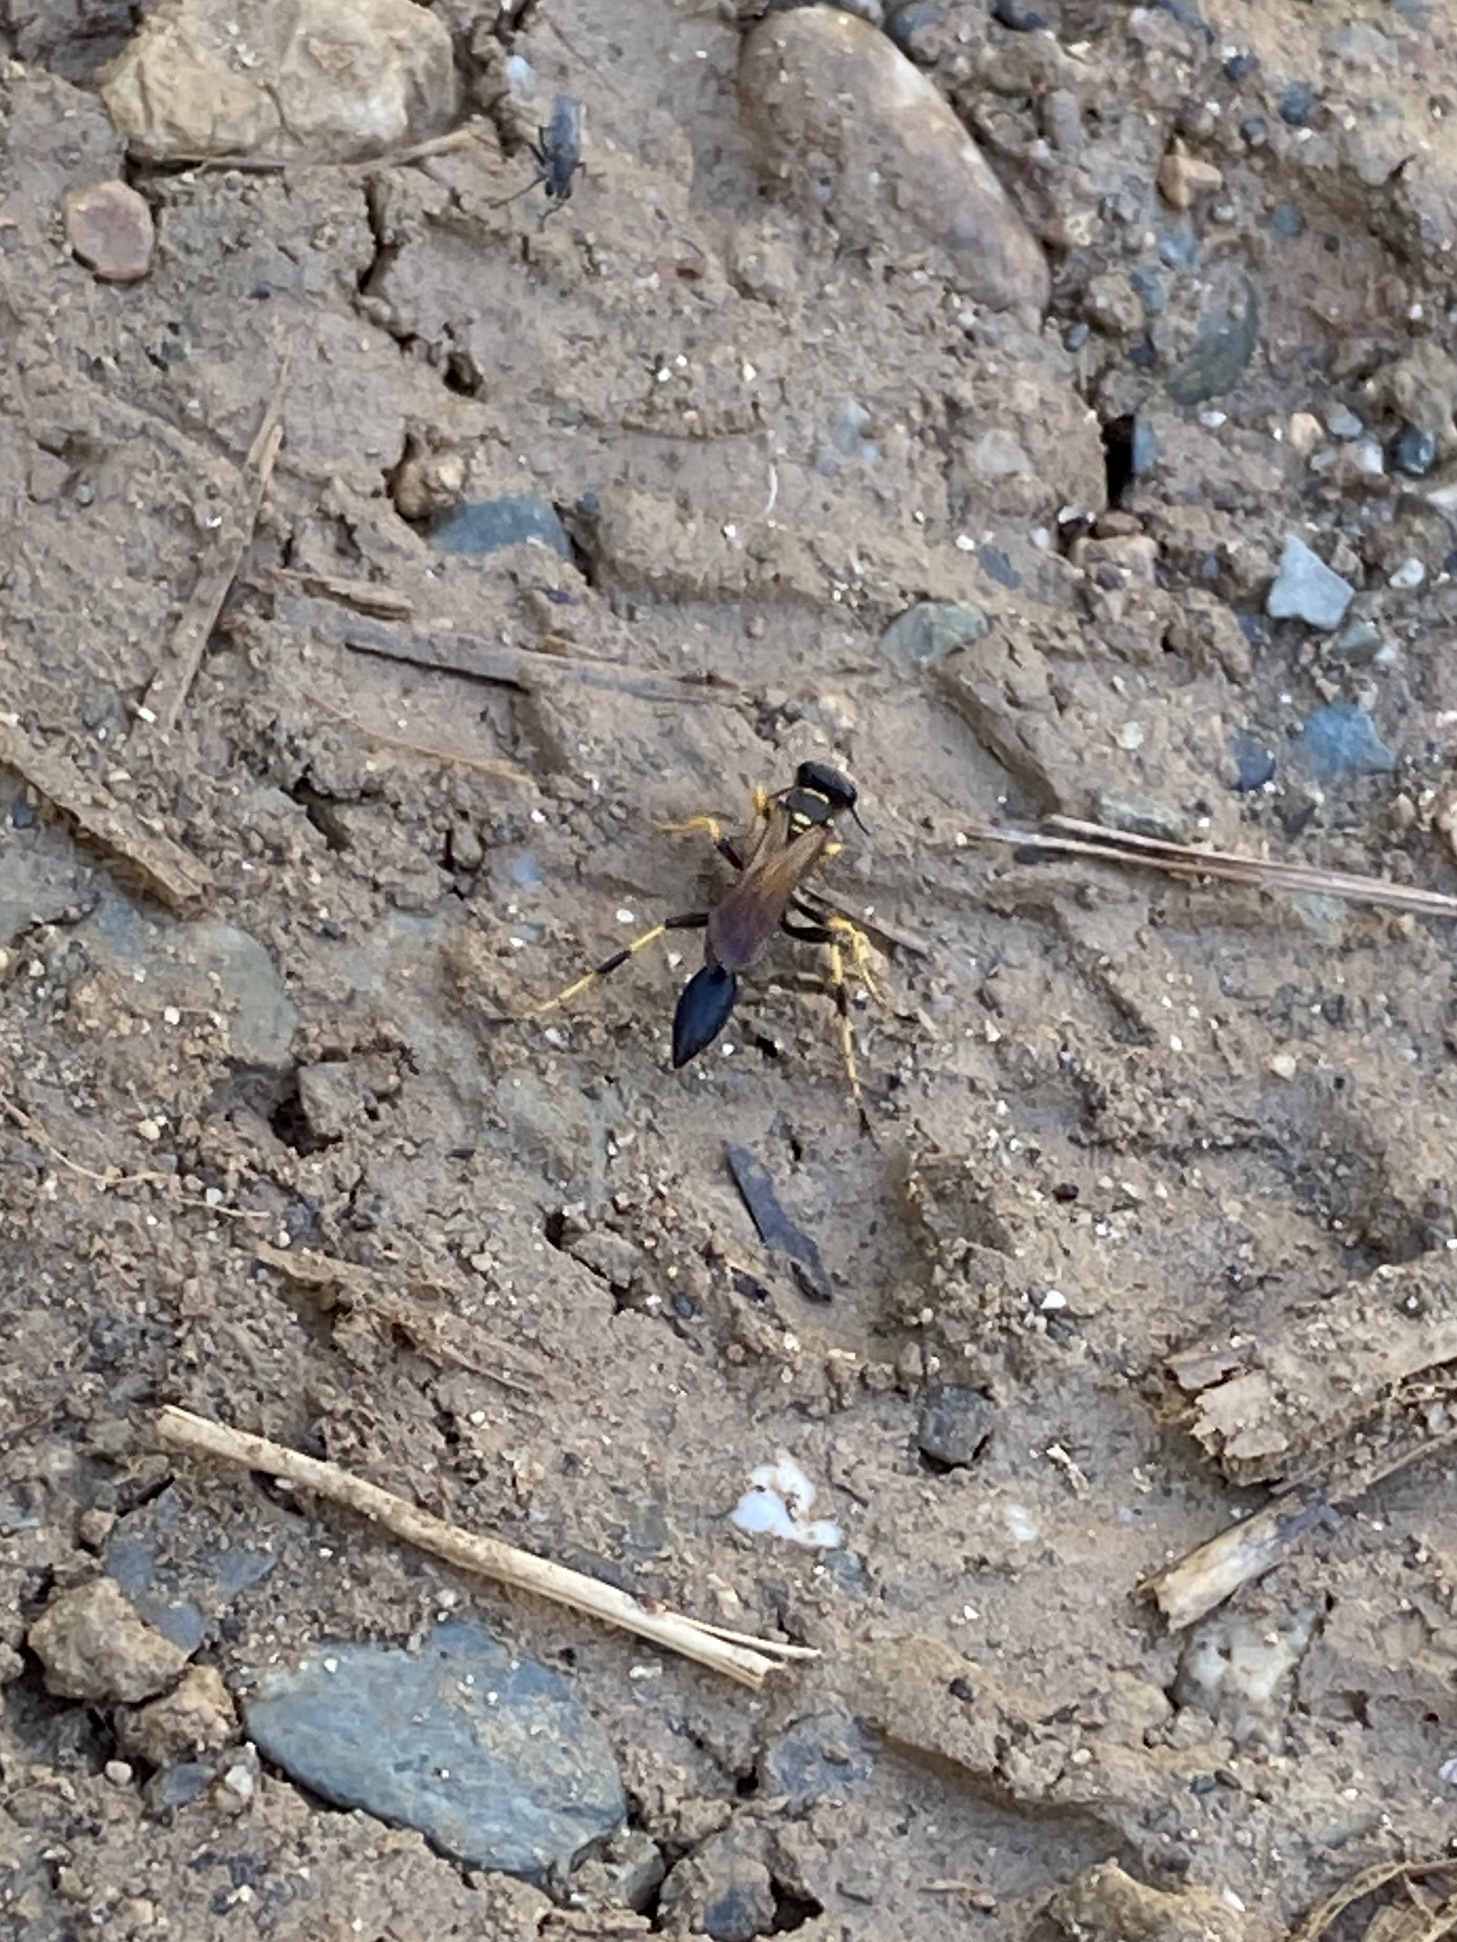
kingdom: Animalia
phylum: Arthropoda
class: Insecta
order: Hymenoptera
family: Sphecidae
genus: Sceliphron
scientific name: Sceliphron caementarium
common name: Mud dauber
